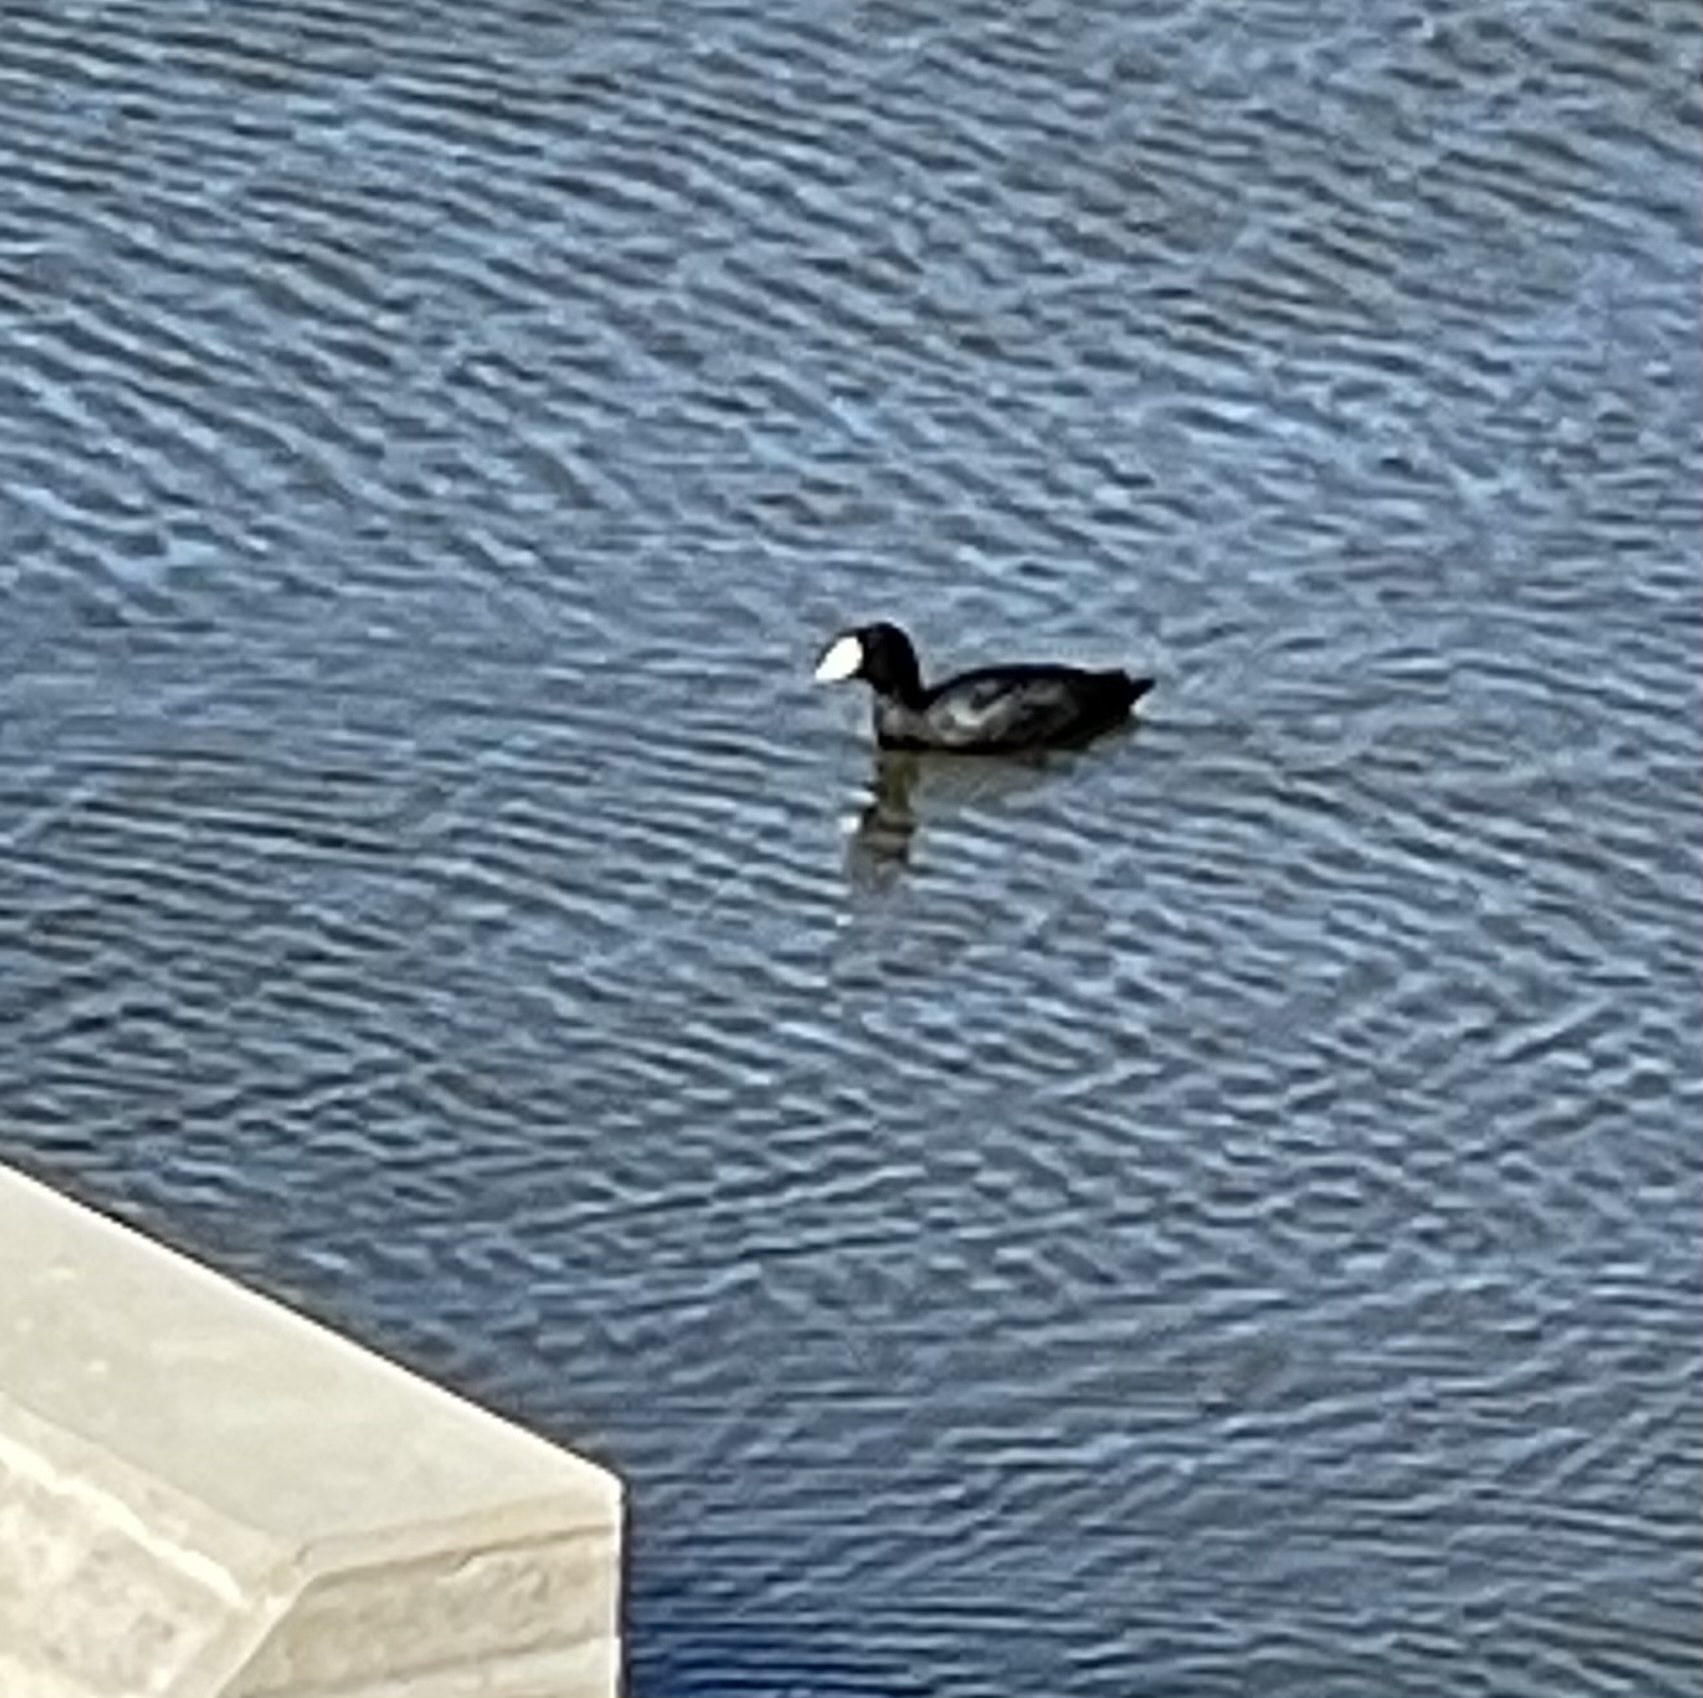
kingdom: Animalia
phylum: Chordata
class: Aves
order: Gruiformes
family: Rallidae
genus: Fulica
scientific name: Fulica americana
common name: American coot
